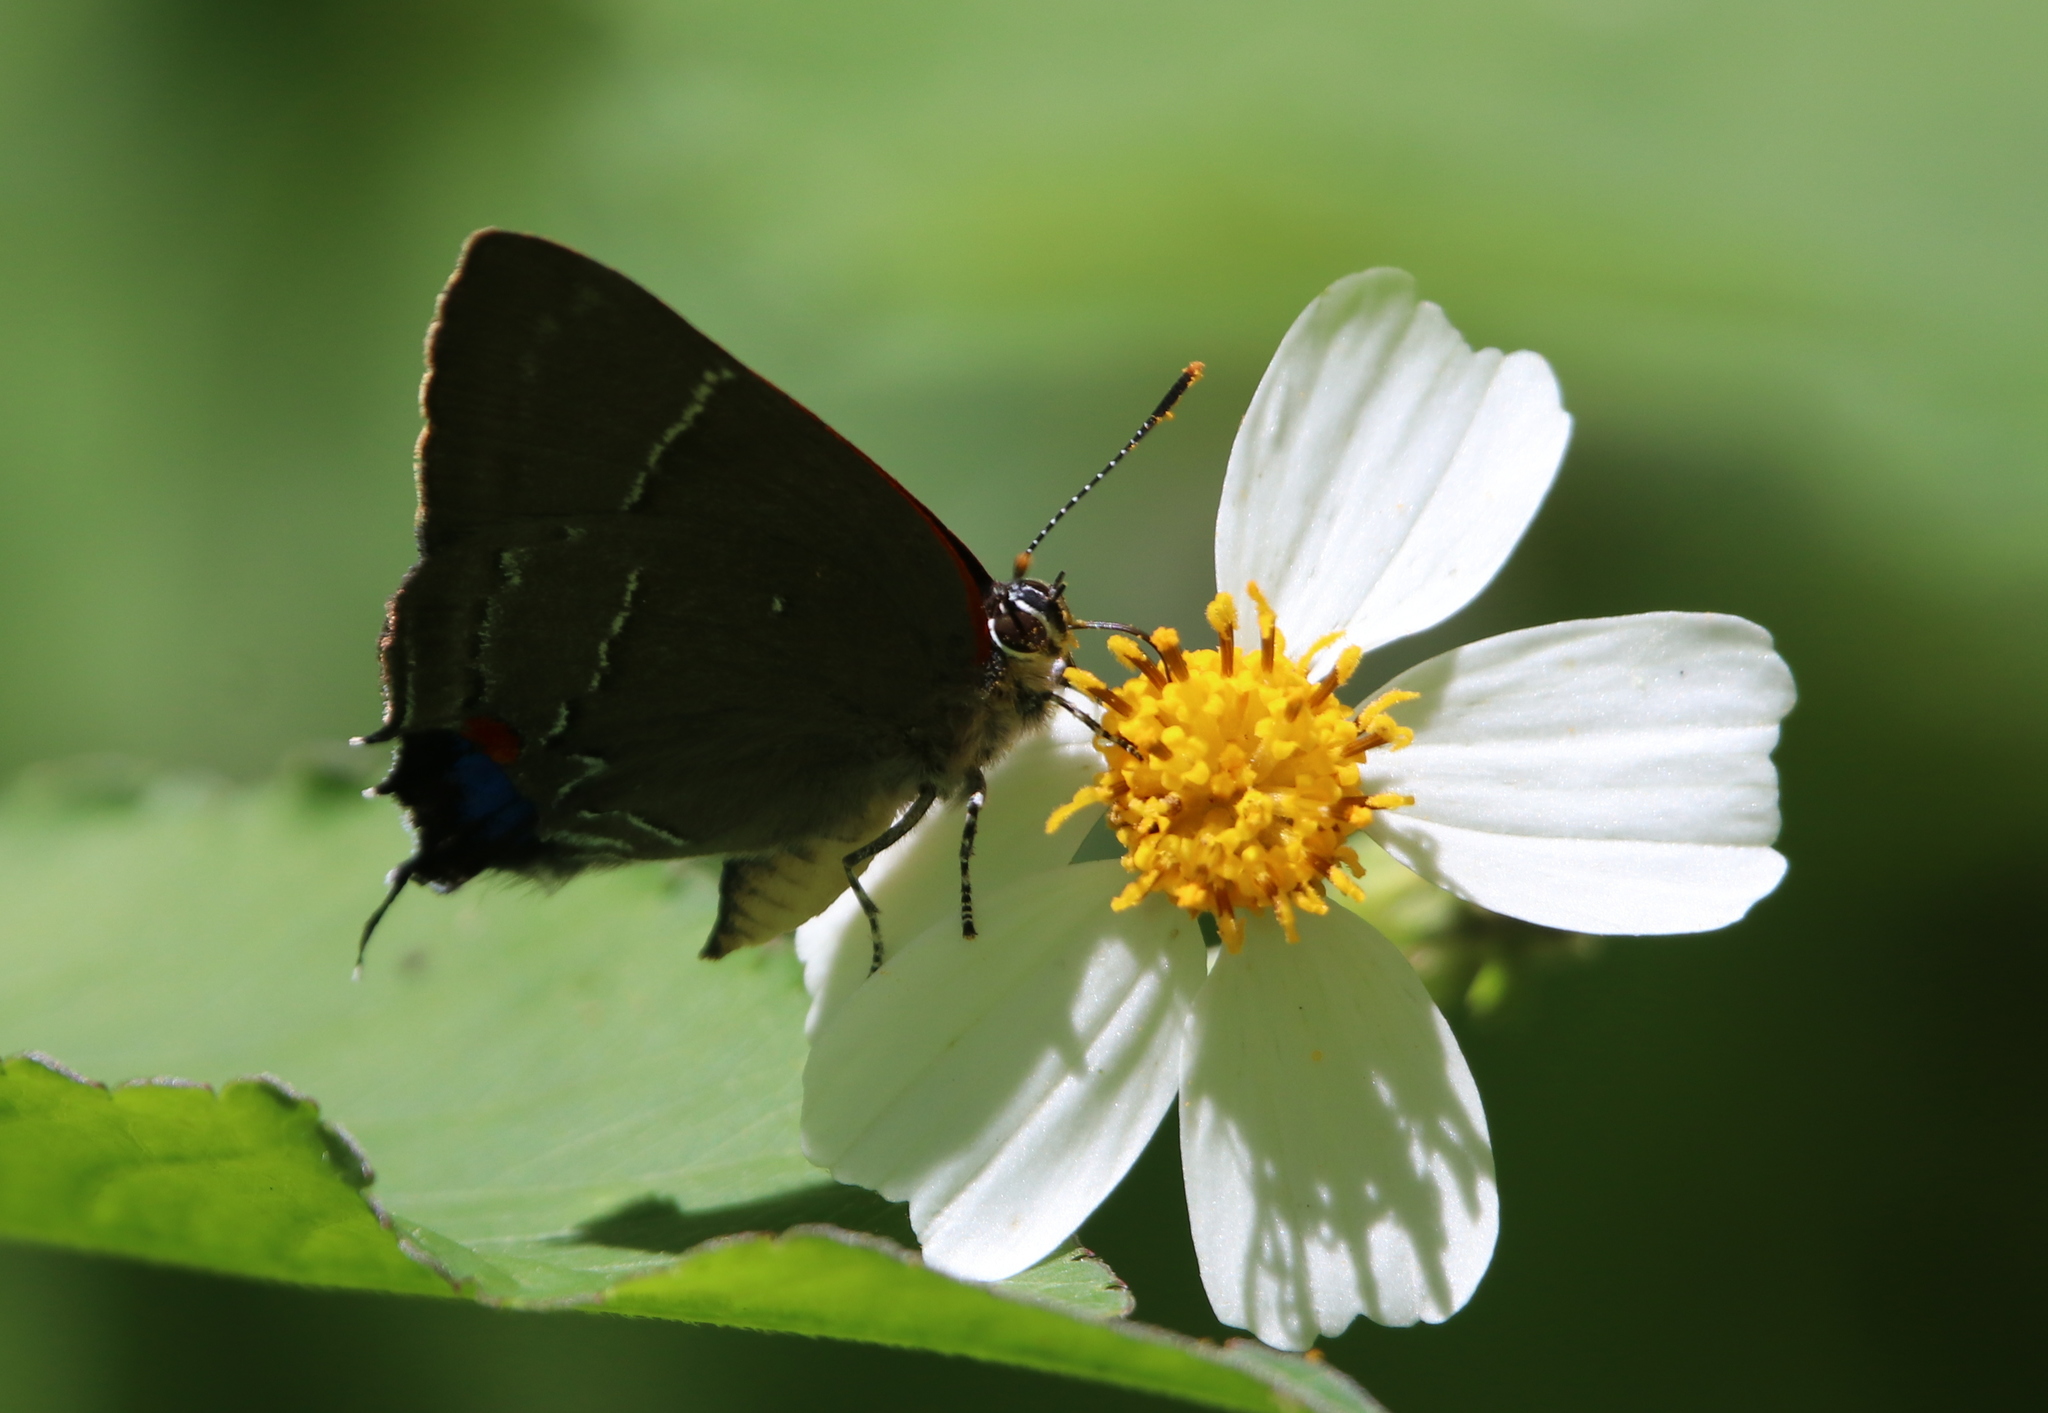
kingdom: Animalia
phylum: Arthropoda
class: Insecta
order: Lepidoptera
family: Lycaenidae
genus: Parrhasius
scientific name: Parrhasius m-album
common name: White m hairstreak
